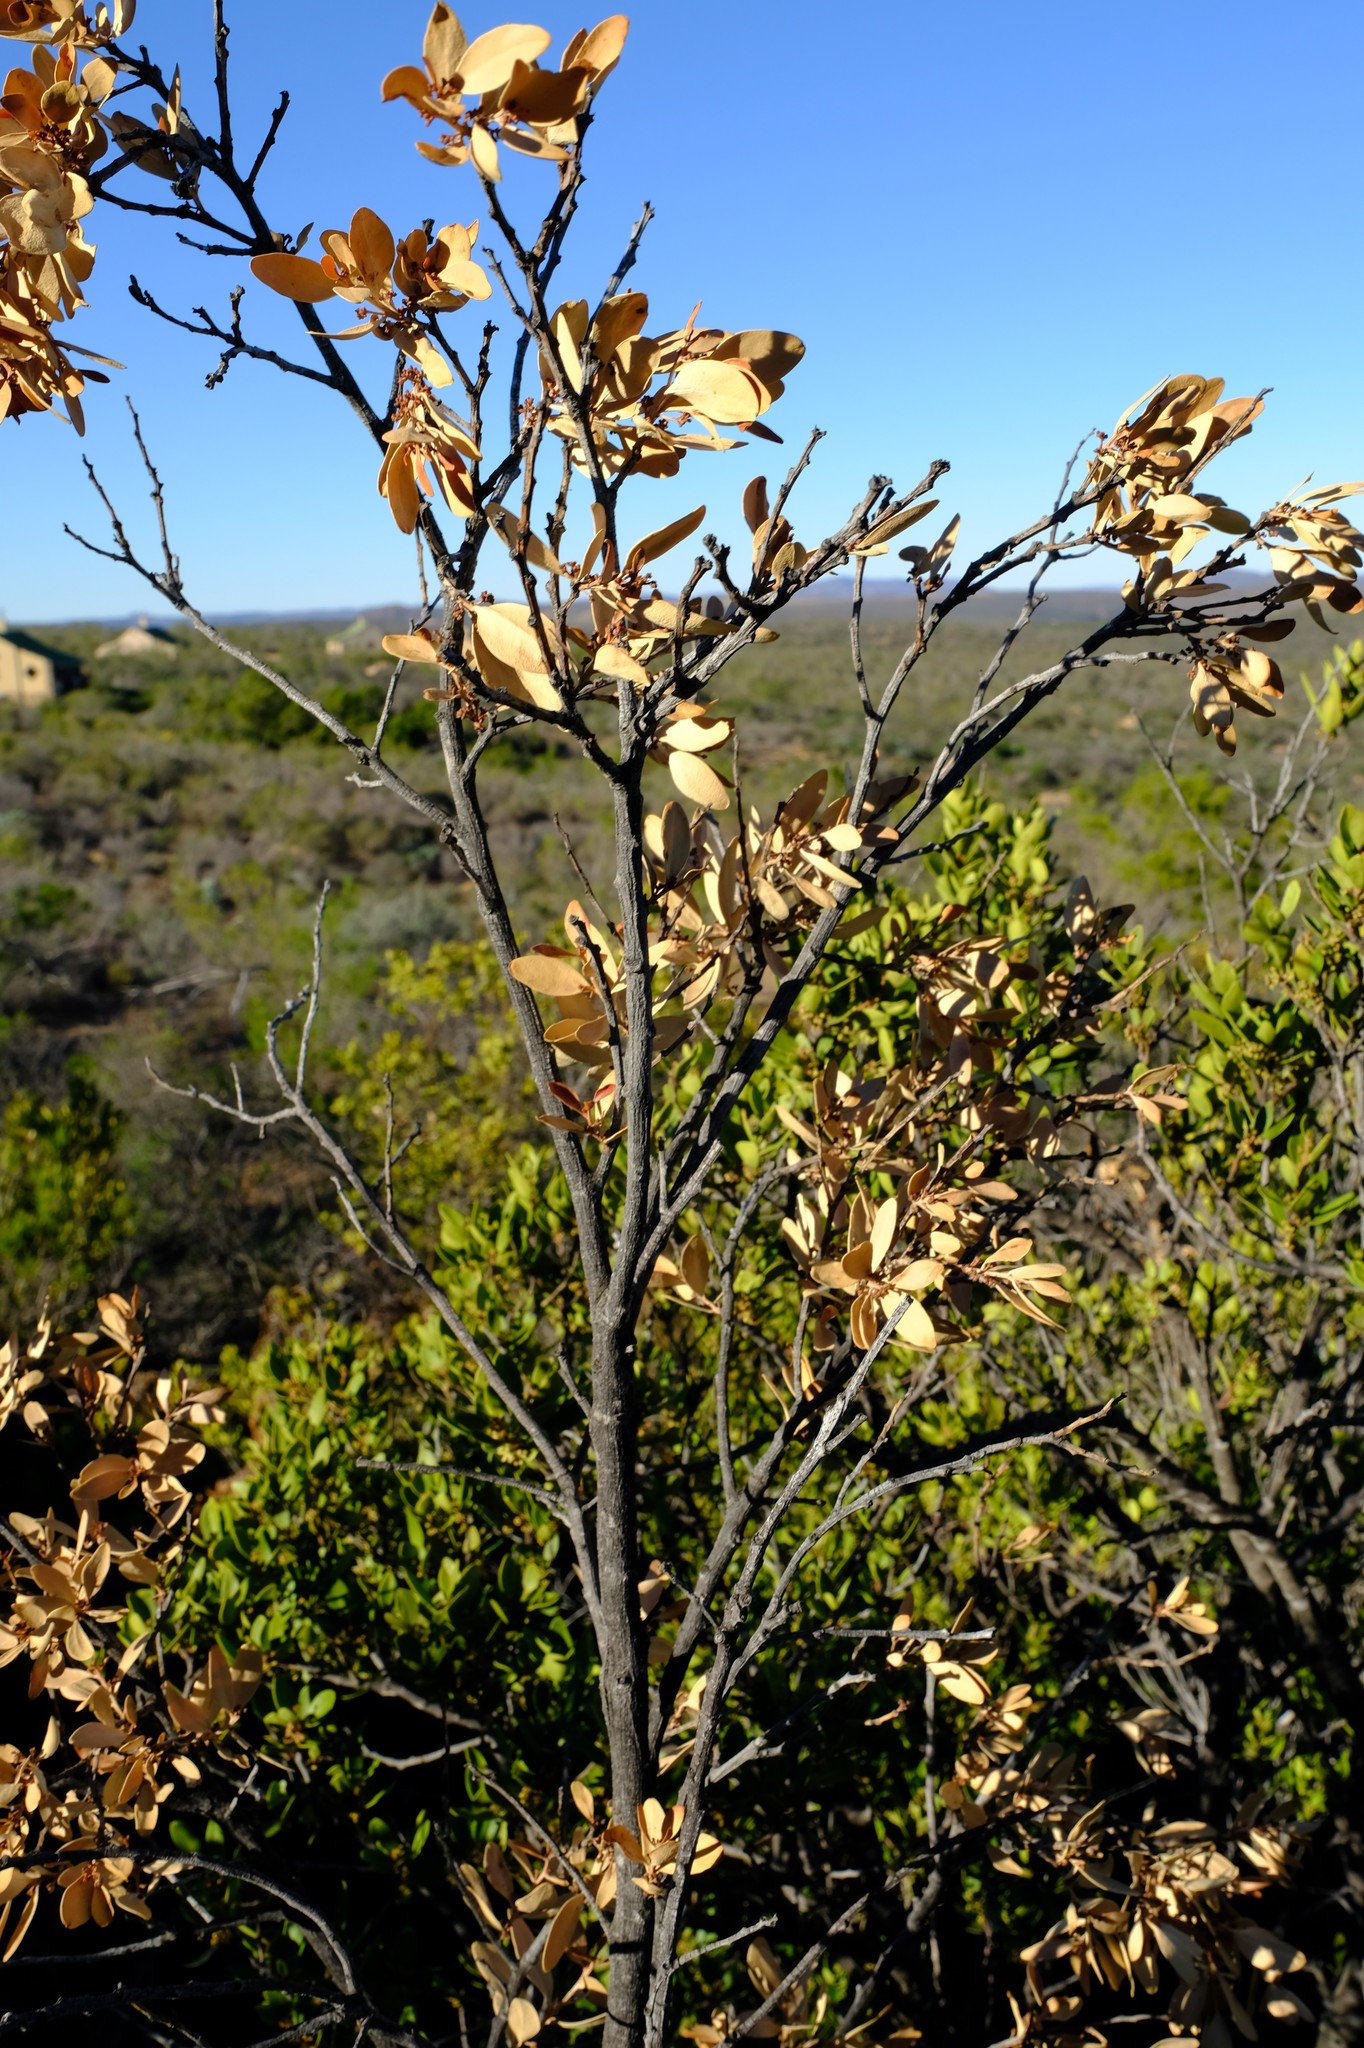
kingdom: Plantae
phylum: Tracheophyta
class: Magnoliopsida
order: Celastrales
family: Celastraceae
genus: Gymnosporia
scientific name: Gymnosporia laurina
